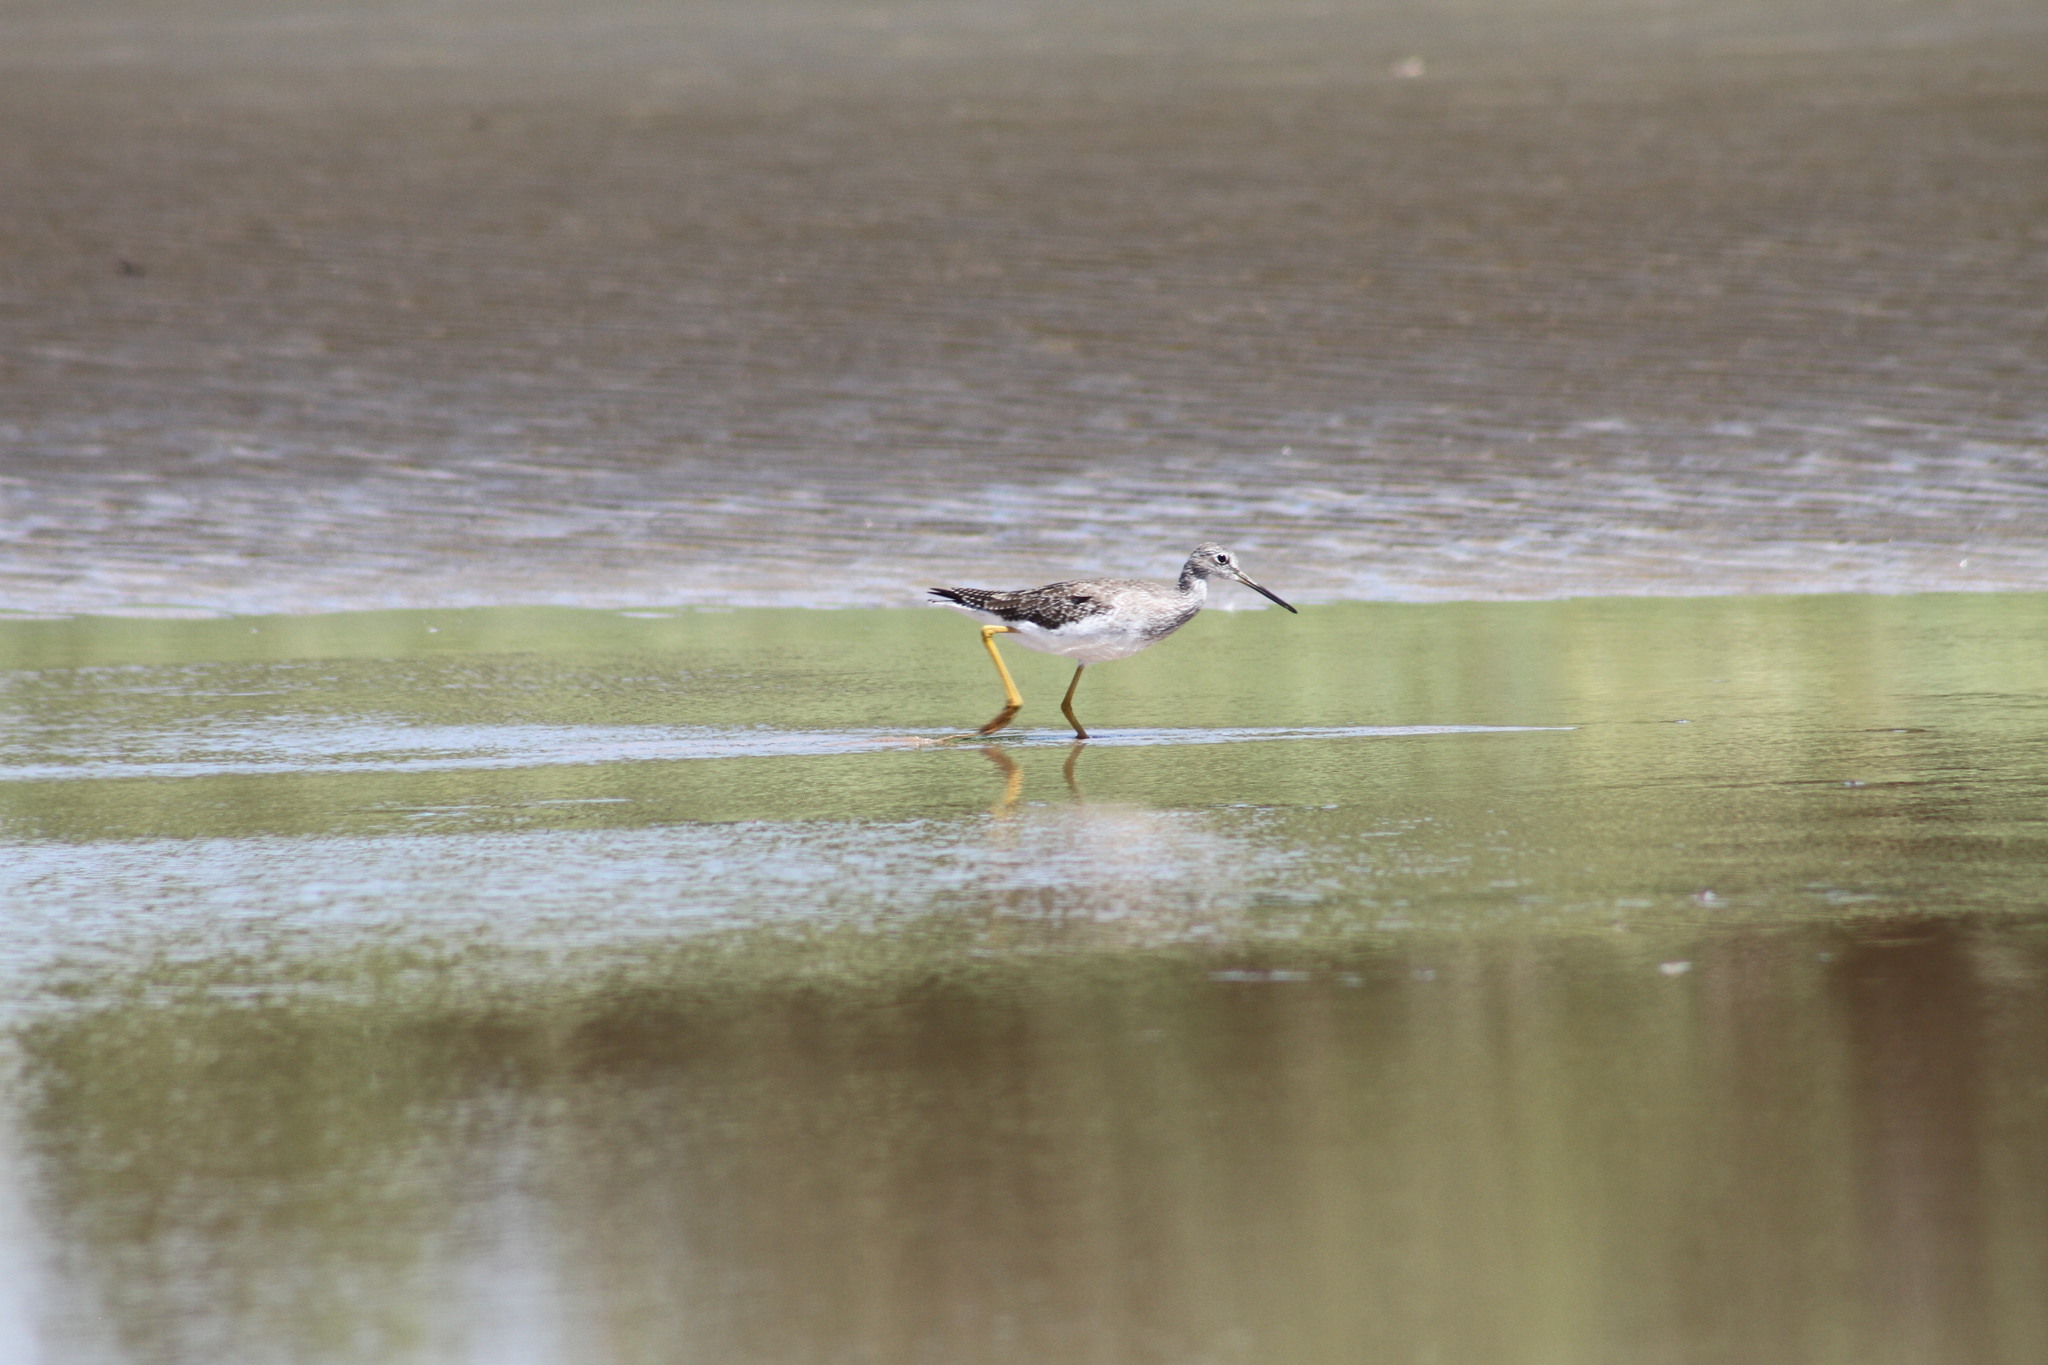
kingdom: Animalia
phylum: Chordata
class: Aves
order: Charadriiformes
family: Scolopacidae
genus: Tringa
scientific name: Tringa melanoleuca
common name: Greater yellowlegs
